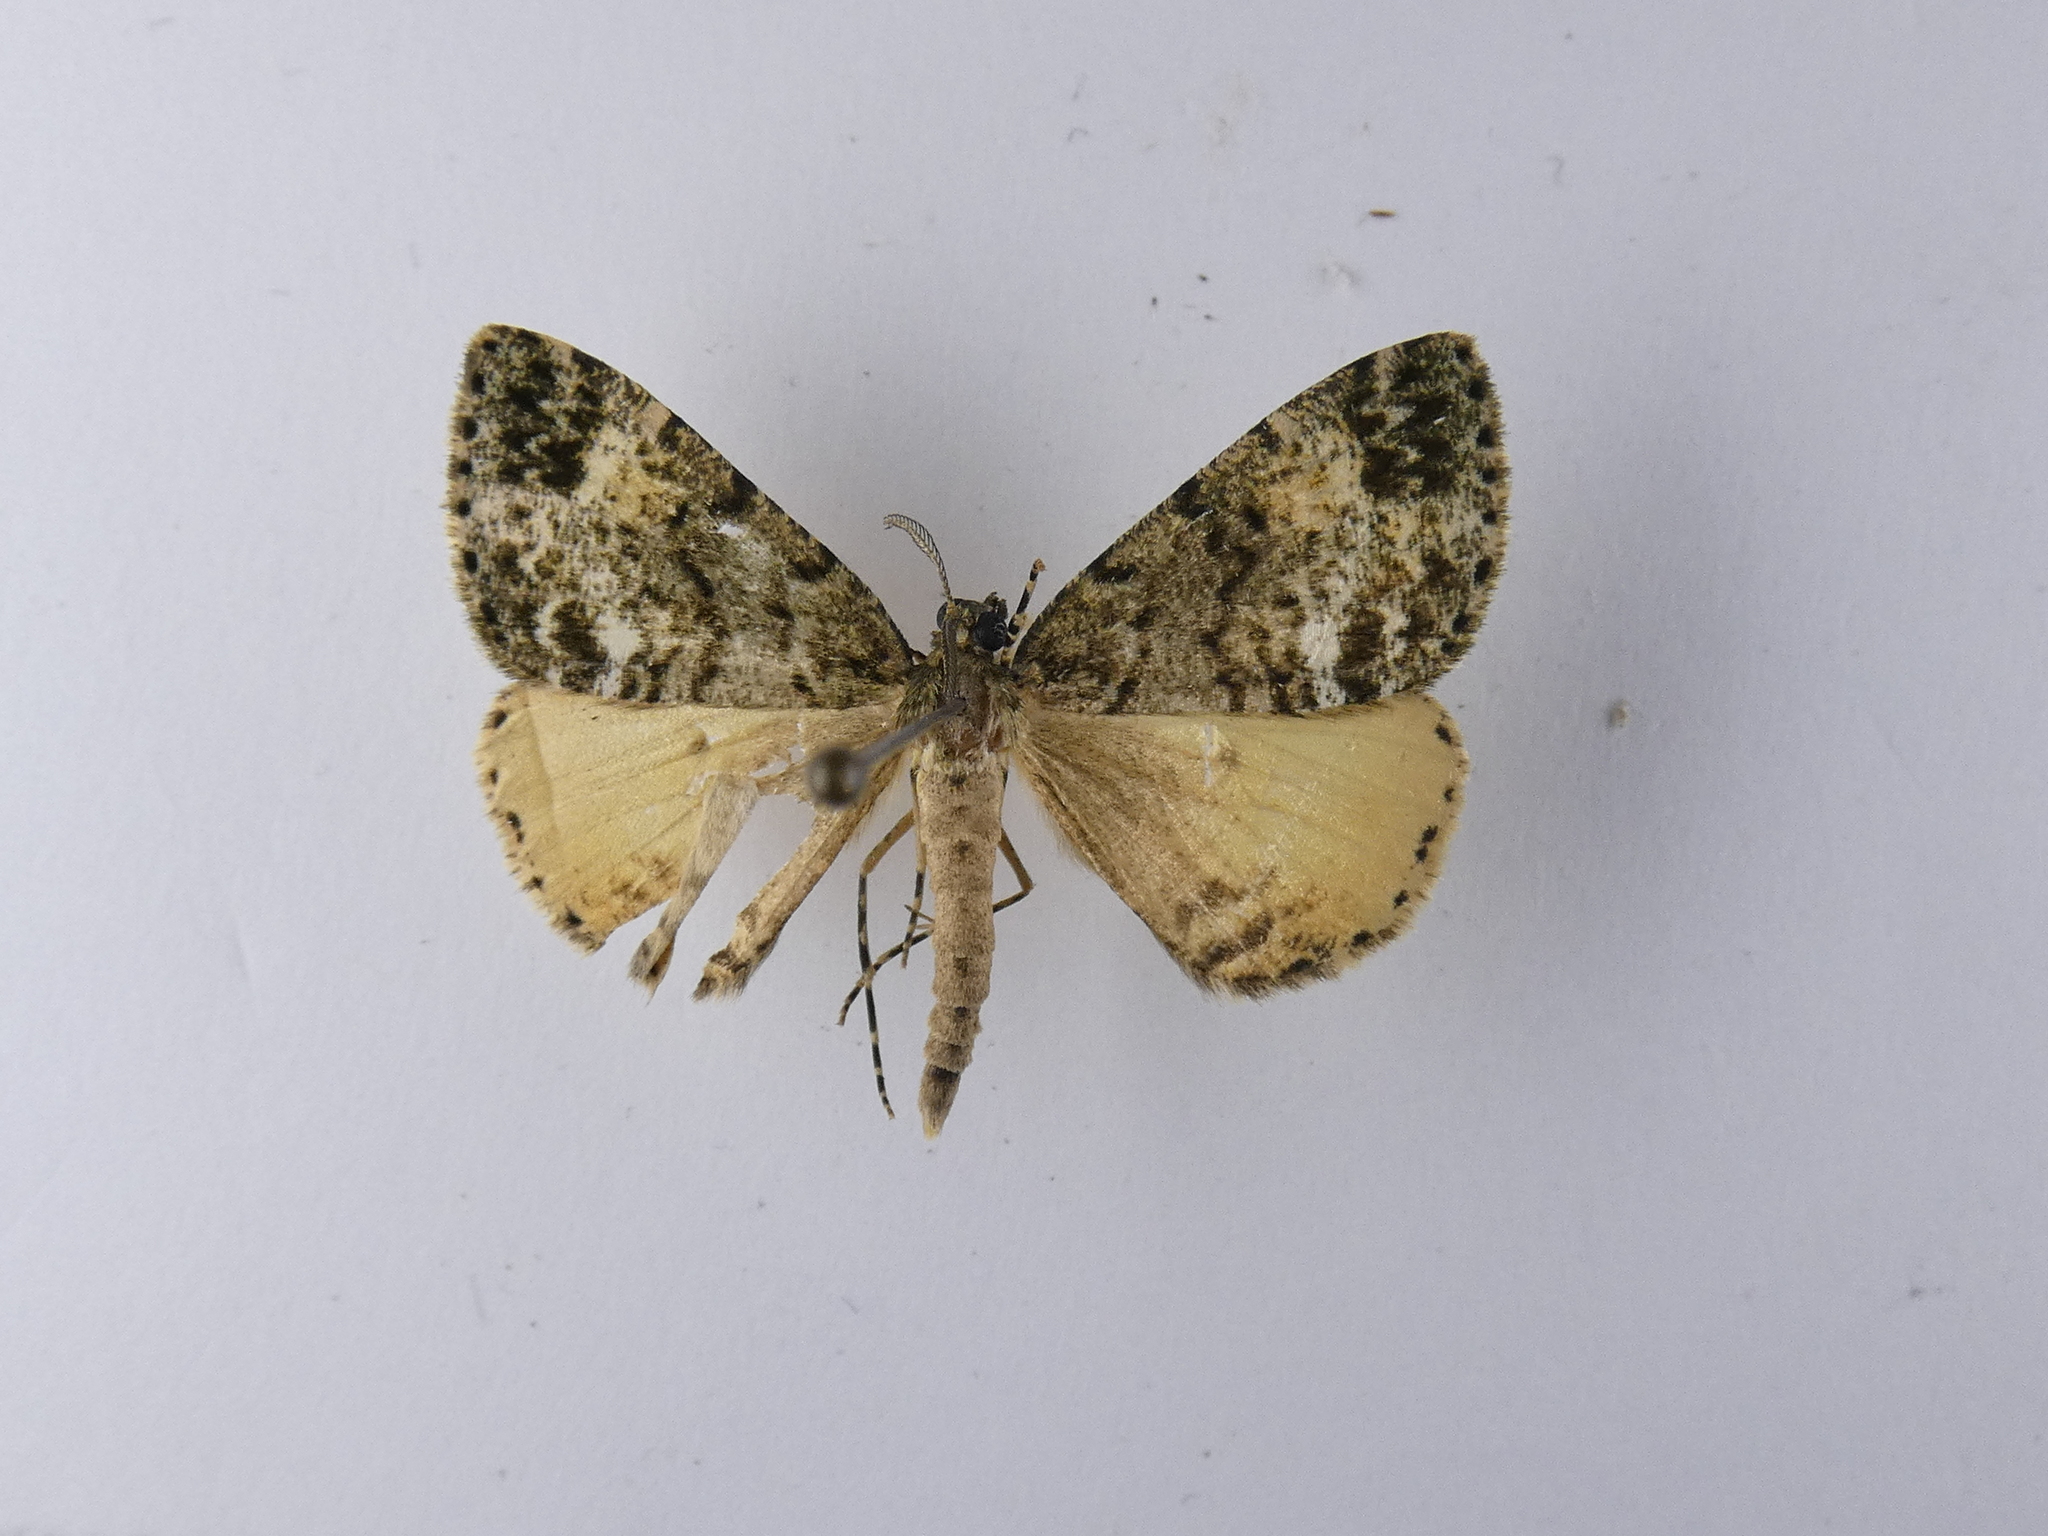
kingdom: Animalia
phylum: Arthropoda
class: Insecta
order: Lepidoptera
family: Geometridae
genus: Pseudocoremia
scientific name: Pseudocoremia indistincta
